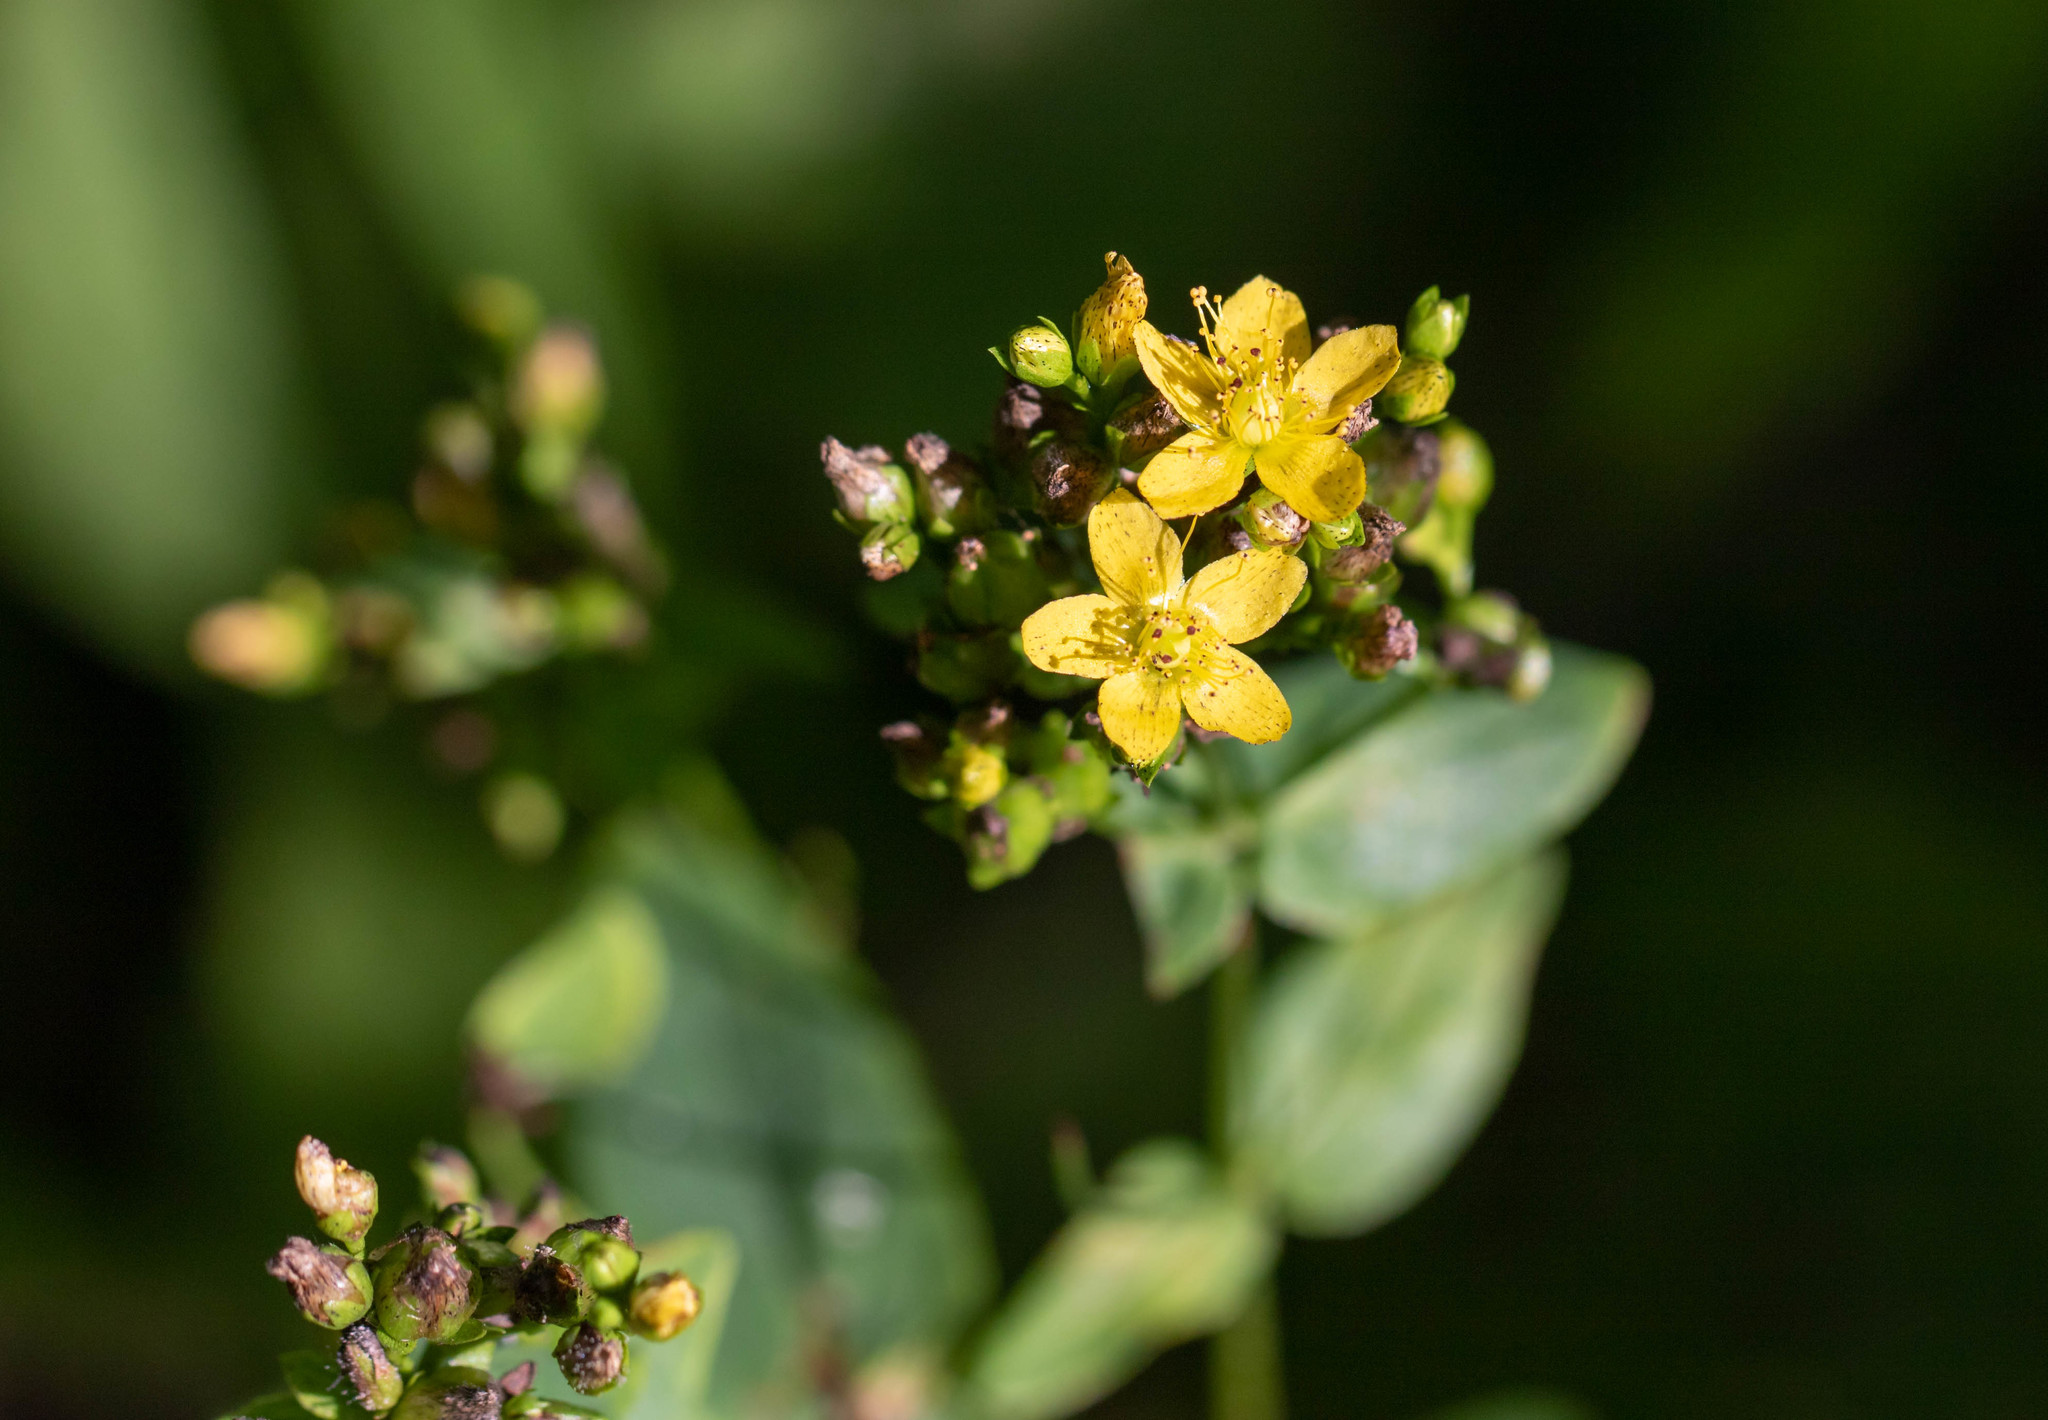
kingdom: Plantae
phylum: Tracheophyta
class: Magnoliopsida
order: Malpighiales
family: Hypericaceae
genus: Hypericum
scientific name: Hypericum punctatum
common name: Spotted st. john's-wort
